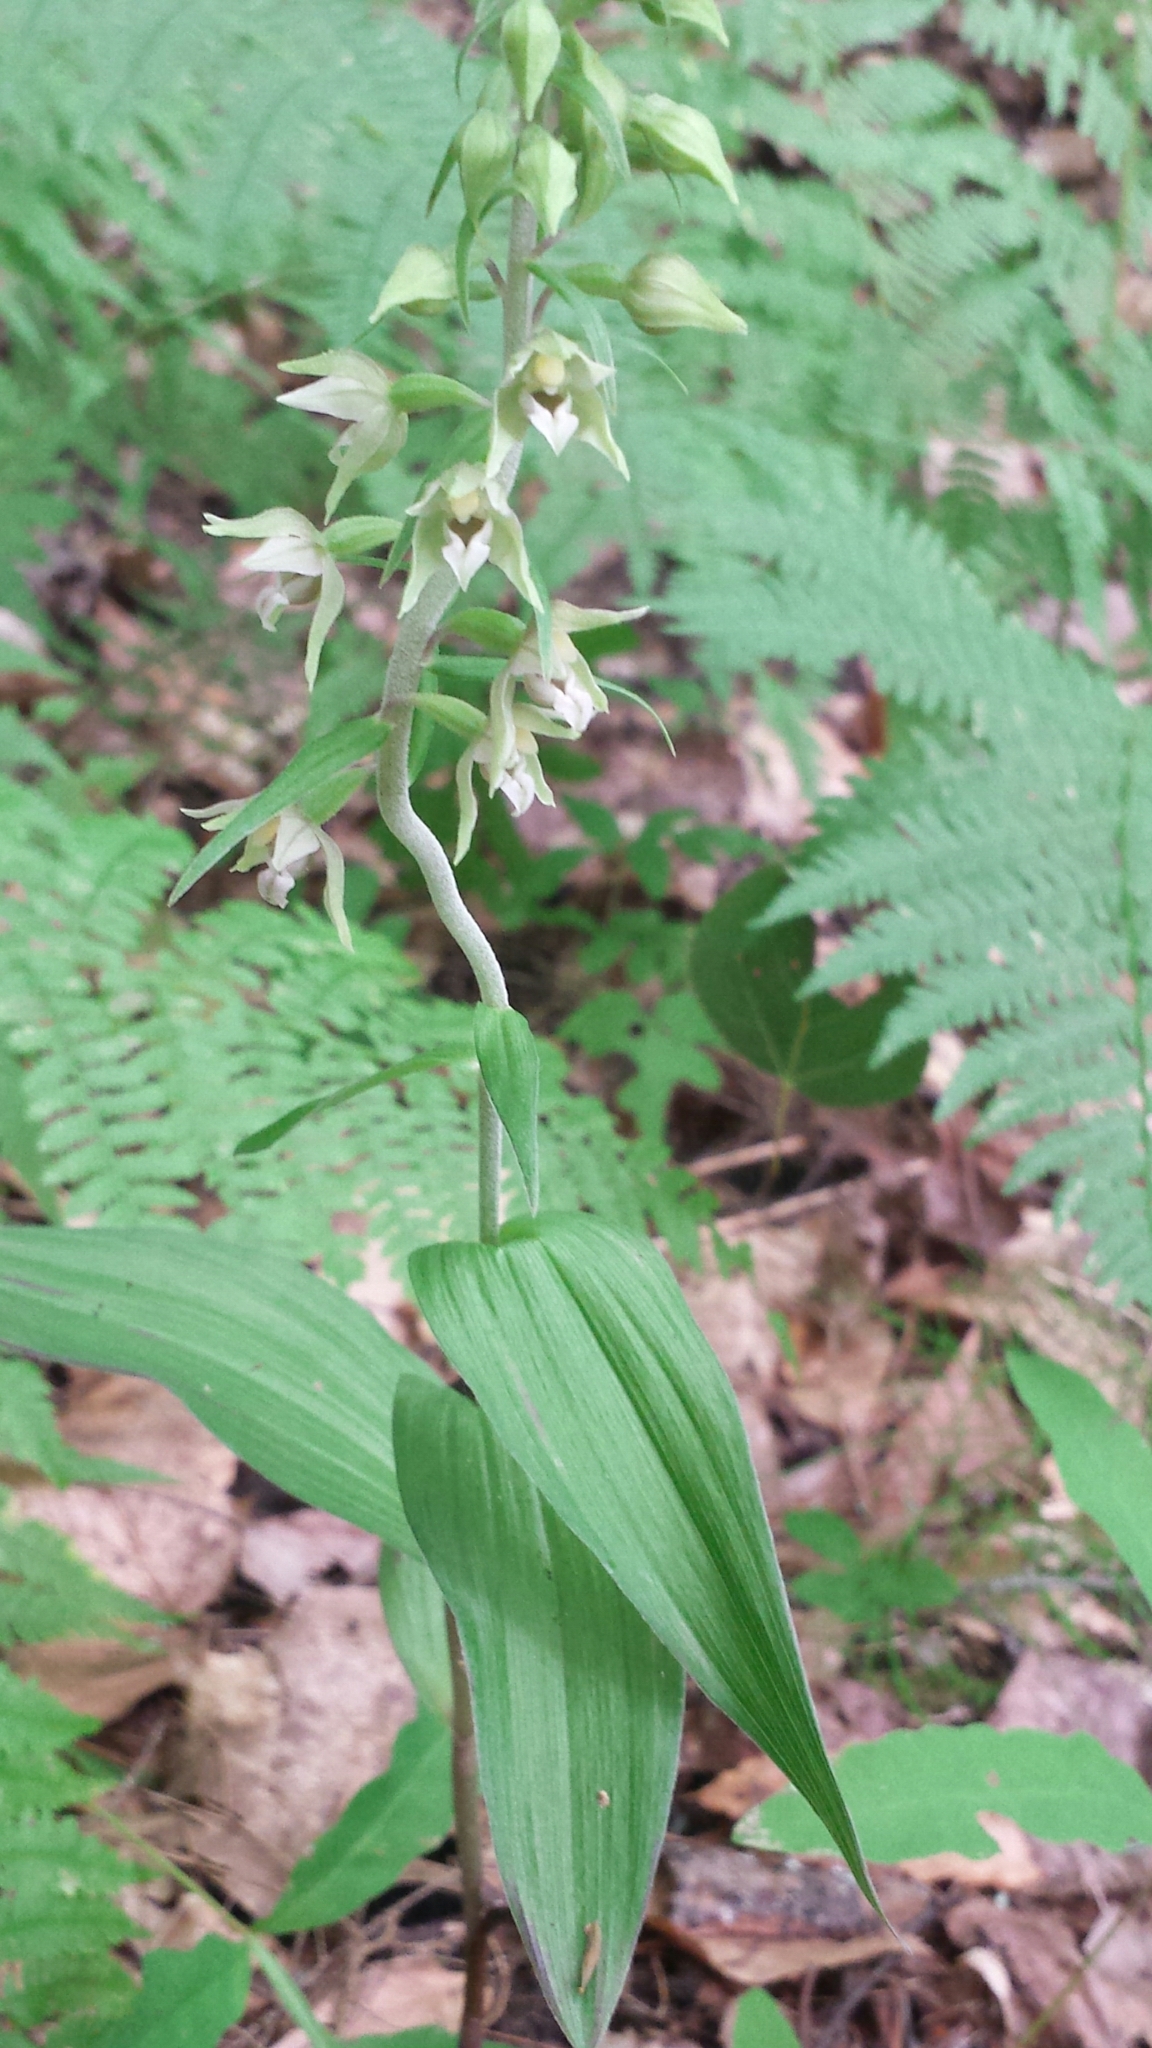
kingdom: Plantae
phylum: Tracheophyta
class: Liliopsida
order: Asparagales
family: Orchidaceae
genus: Epipactis
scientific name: Epipactis helleborine
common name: Broad-leaved helleborine
